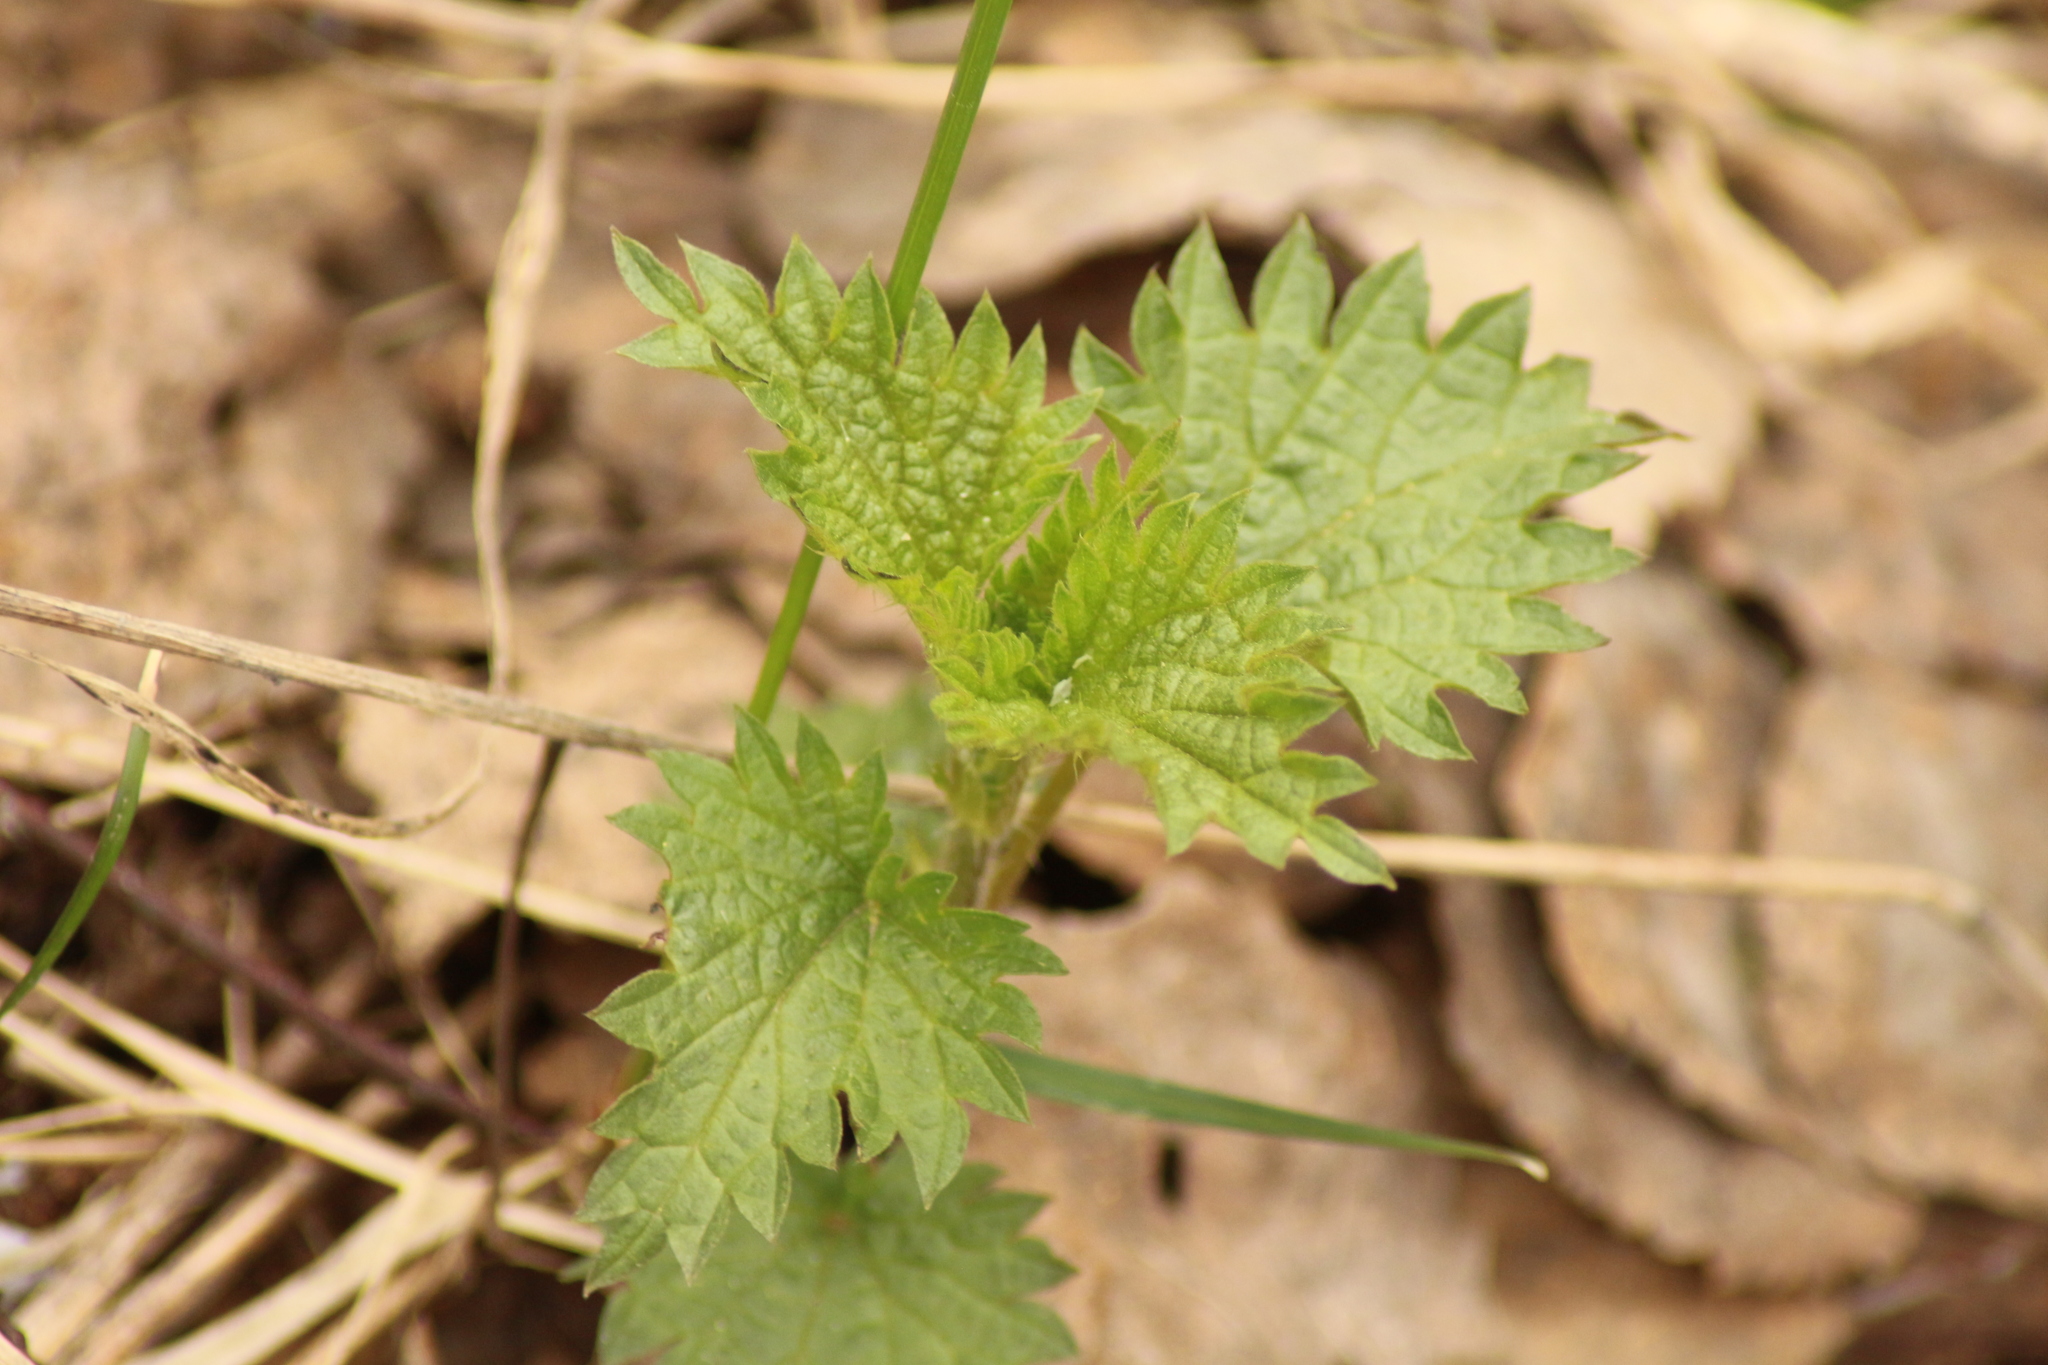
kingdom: Plantae
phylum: Tracheophyta
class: Magnoliopsida
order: Rosales
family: Urticaceae
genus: Urtica
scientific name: Urtica dioica
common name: Common nettle
